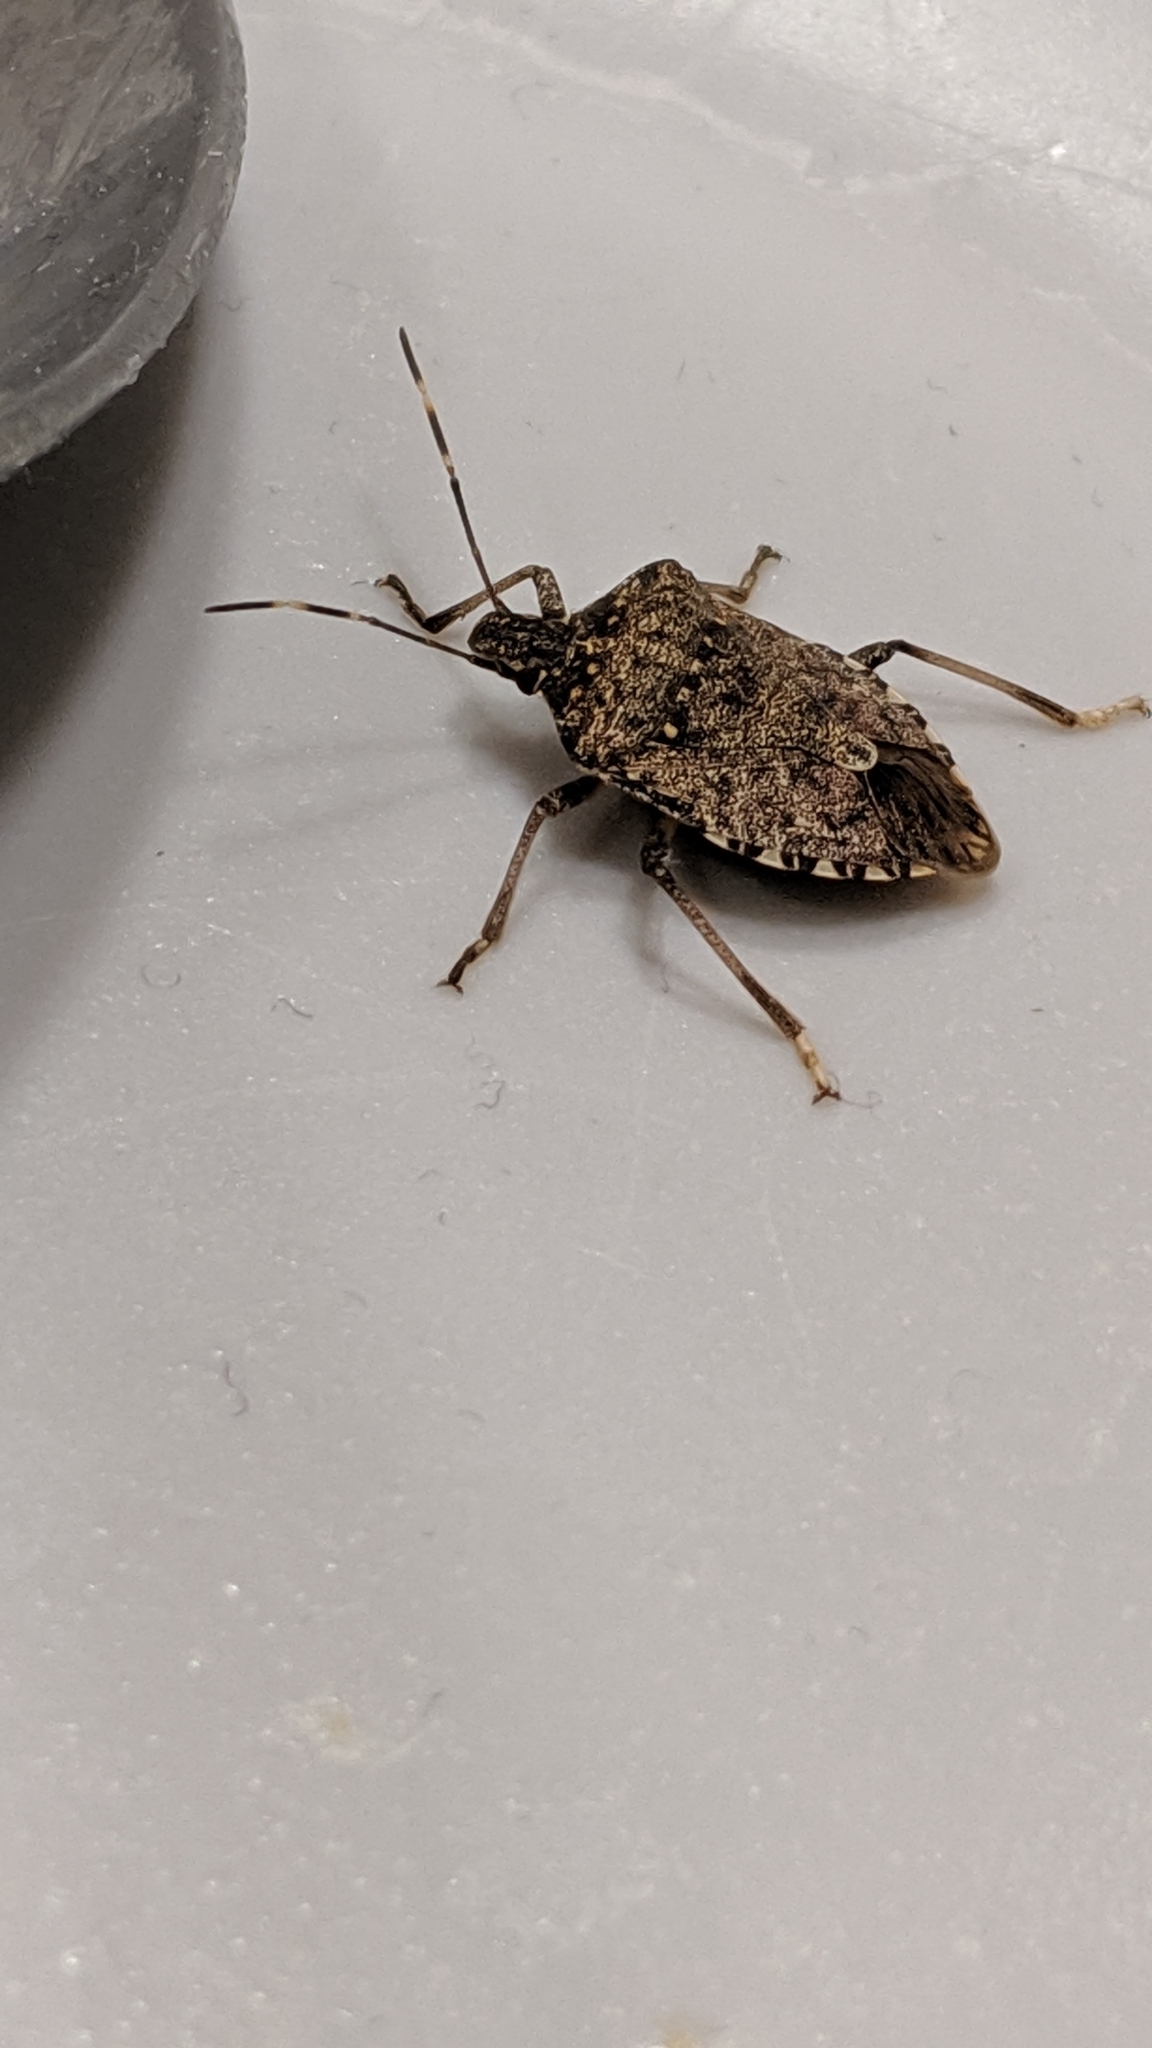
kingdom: Animalia
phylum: Arthropoda
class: Insecta
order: Hemiptera
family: Pentatomidae
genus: Halyomorpha
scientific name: Halyomorpha halys
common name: Brown marmorated stink bug
